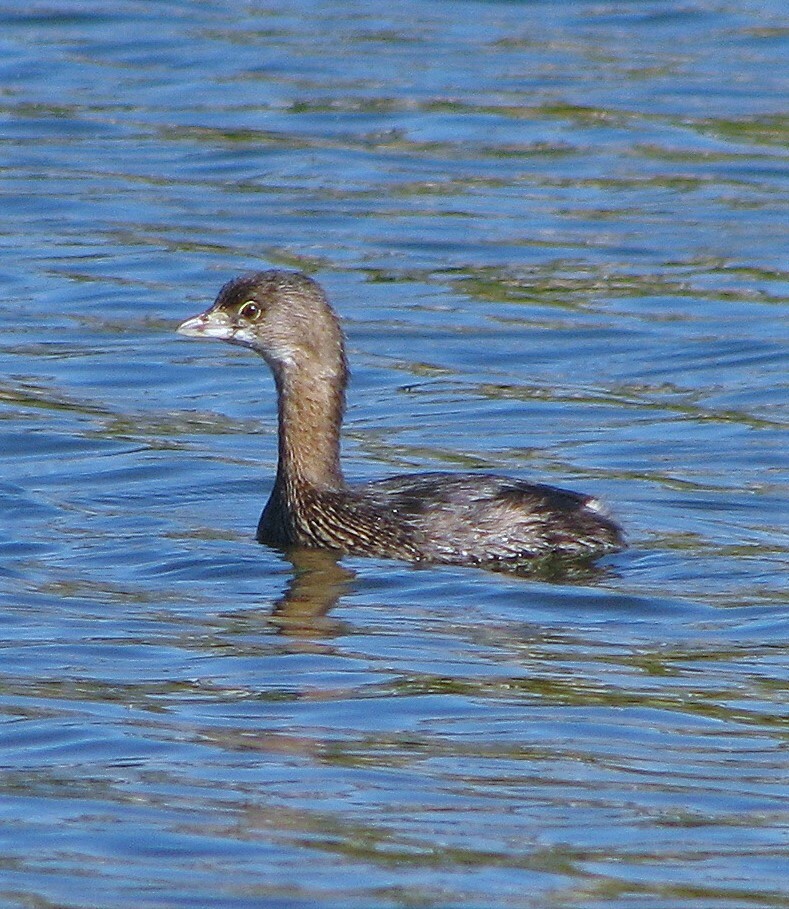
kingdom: Animalia
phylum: Chordata
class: Aves
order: Podicipediformes
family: Podicipedidae
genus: Podilymbus
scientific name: Podilymbus podiceps
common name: Pied-billed grebe
